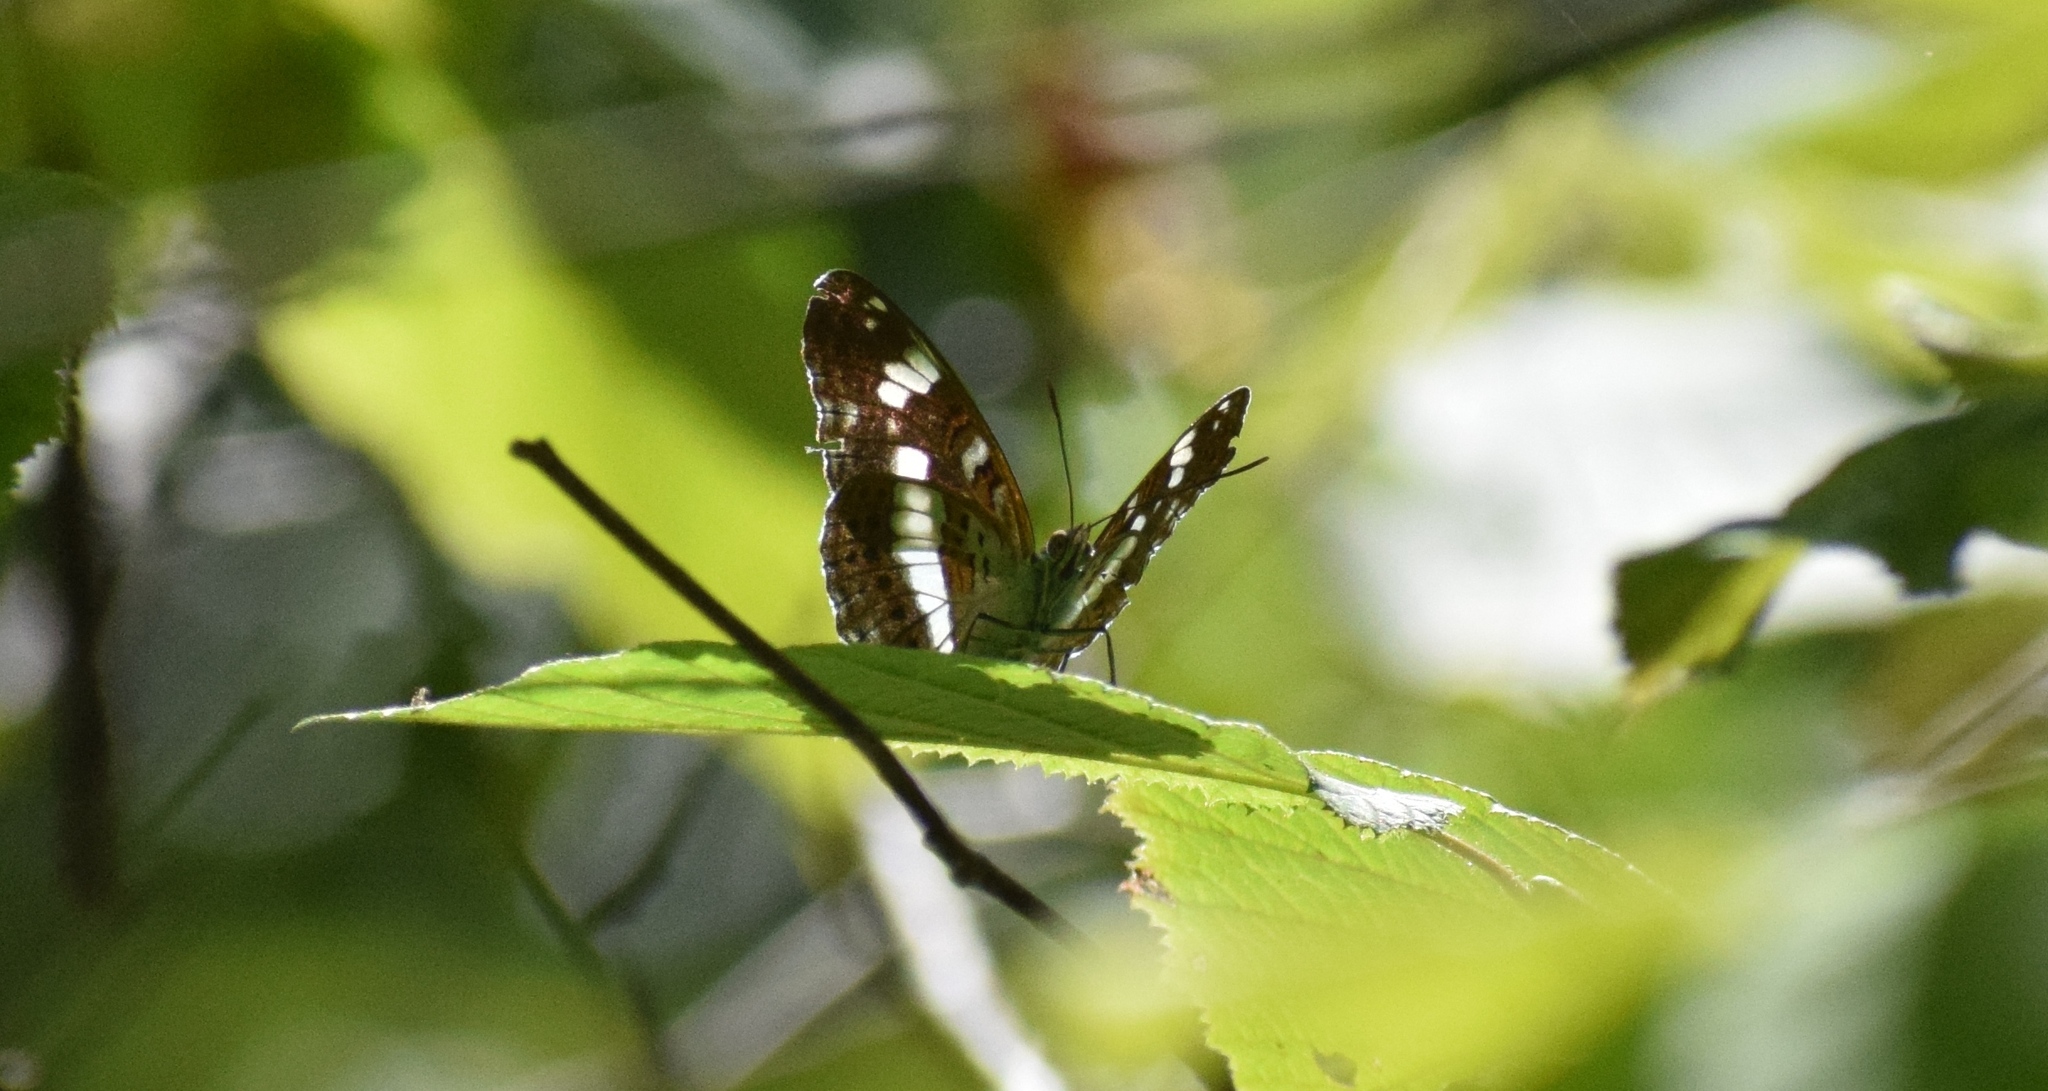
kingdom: Animalia
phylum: Arthropoda
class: Insecta
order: Lepidoptera
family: Nymphalidae
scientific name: Nymphalidae
